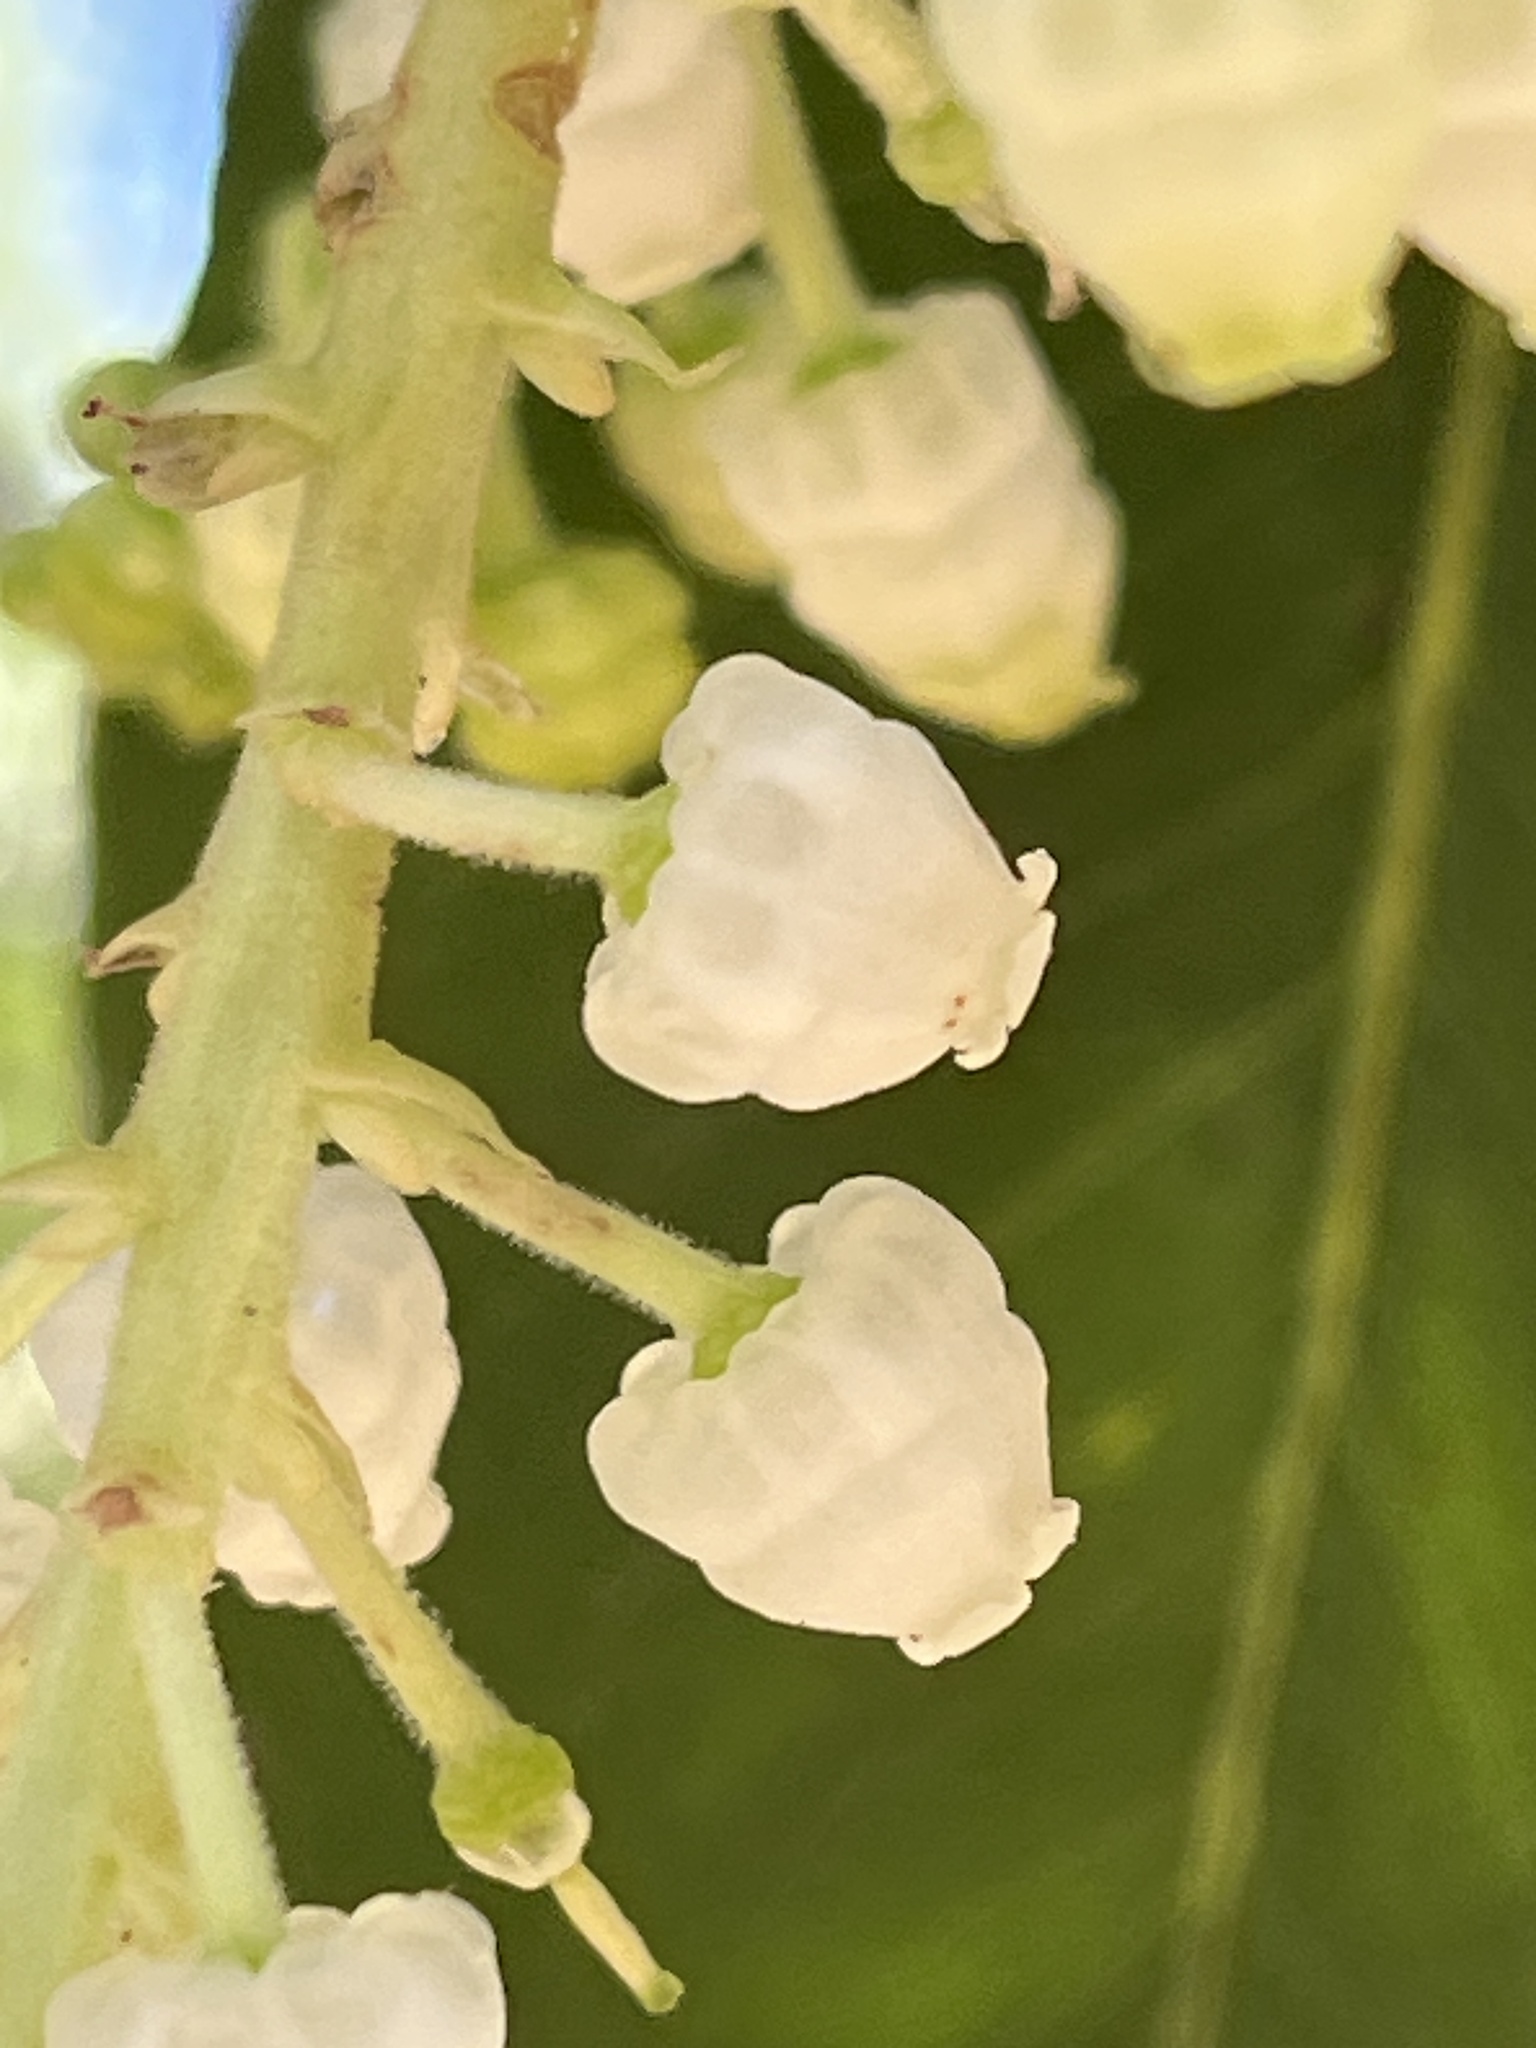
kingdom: Plantae
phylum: Tracheophyta
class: Magnoliopsida
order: Ericales
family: Ericaceae
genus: Arbutus
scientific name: Arbutus menziesii
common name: Pacific madrone
